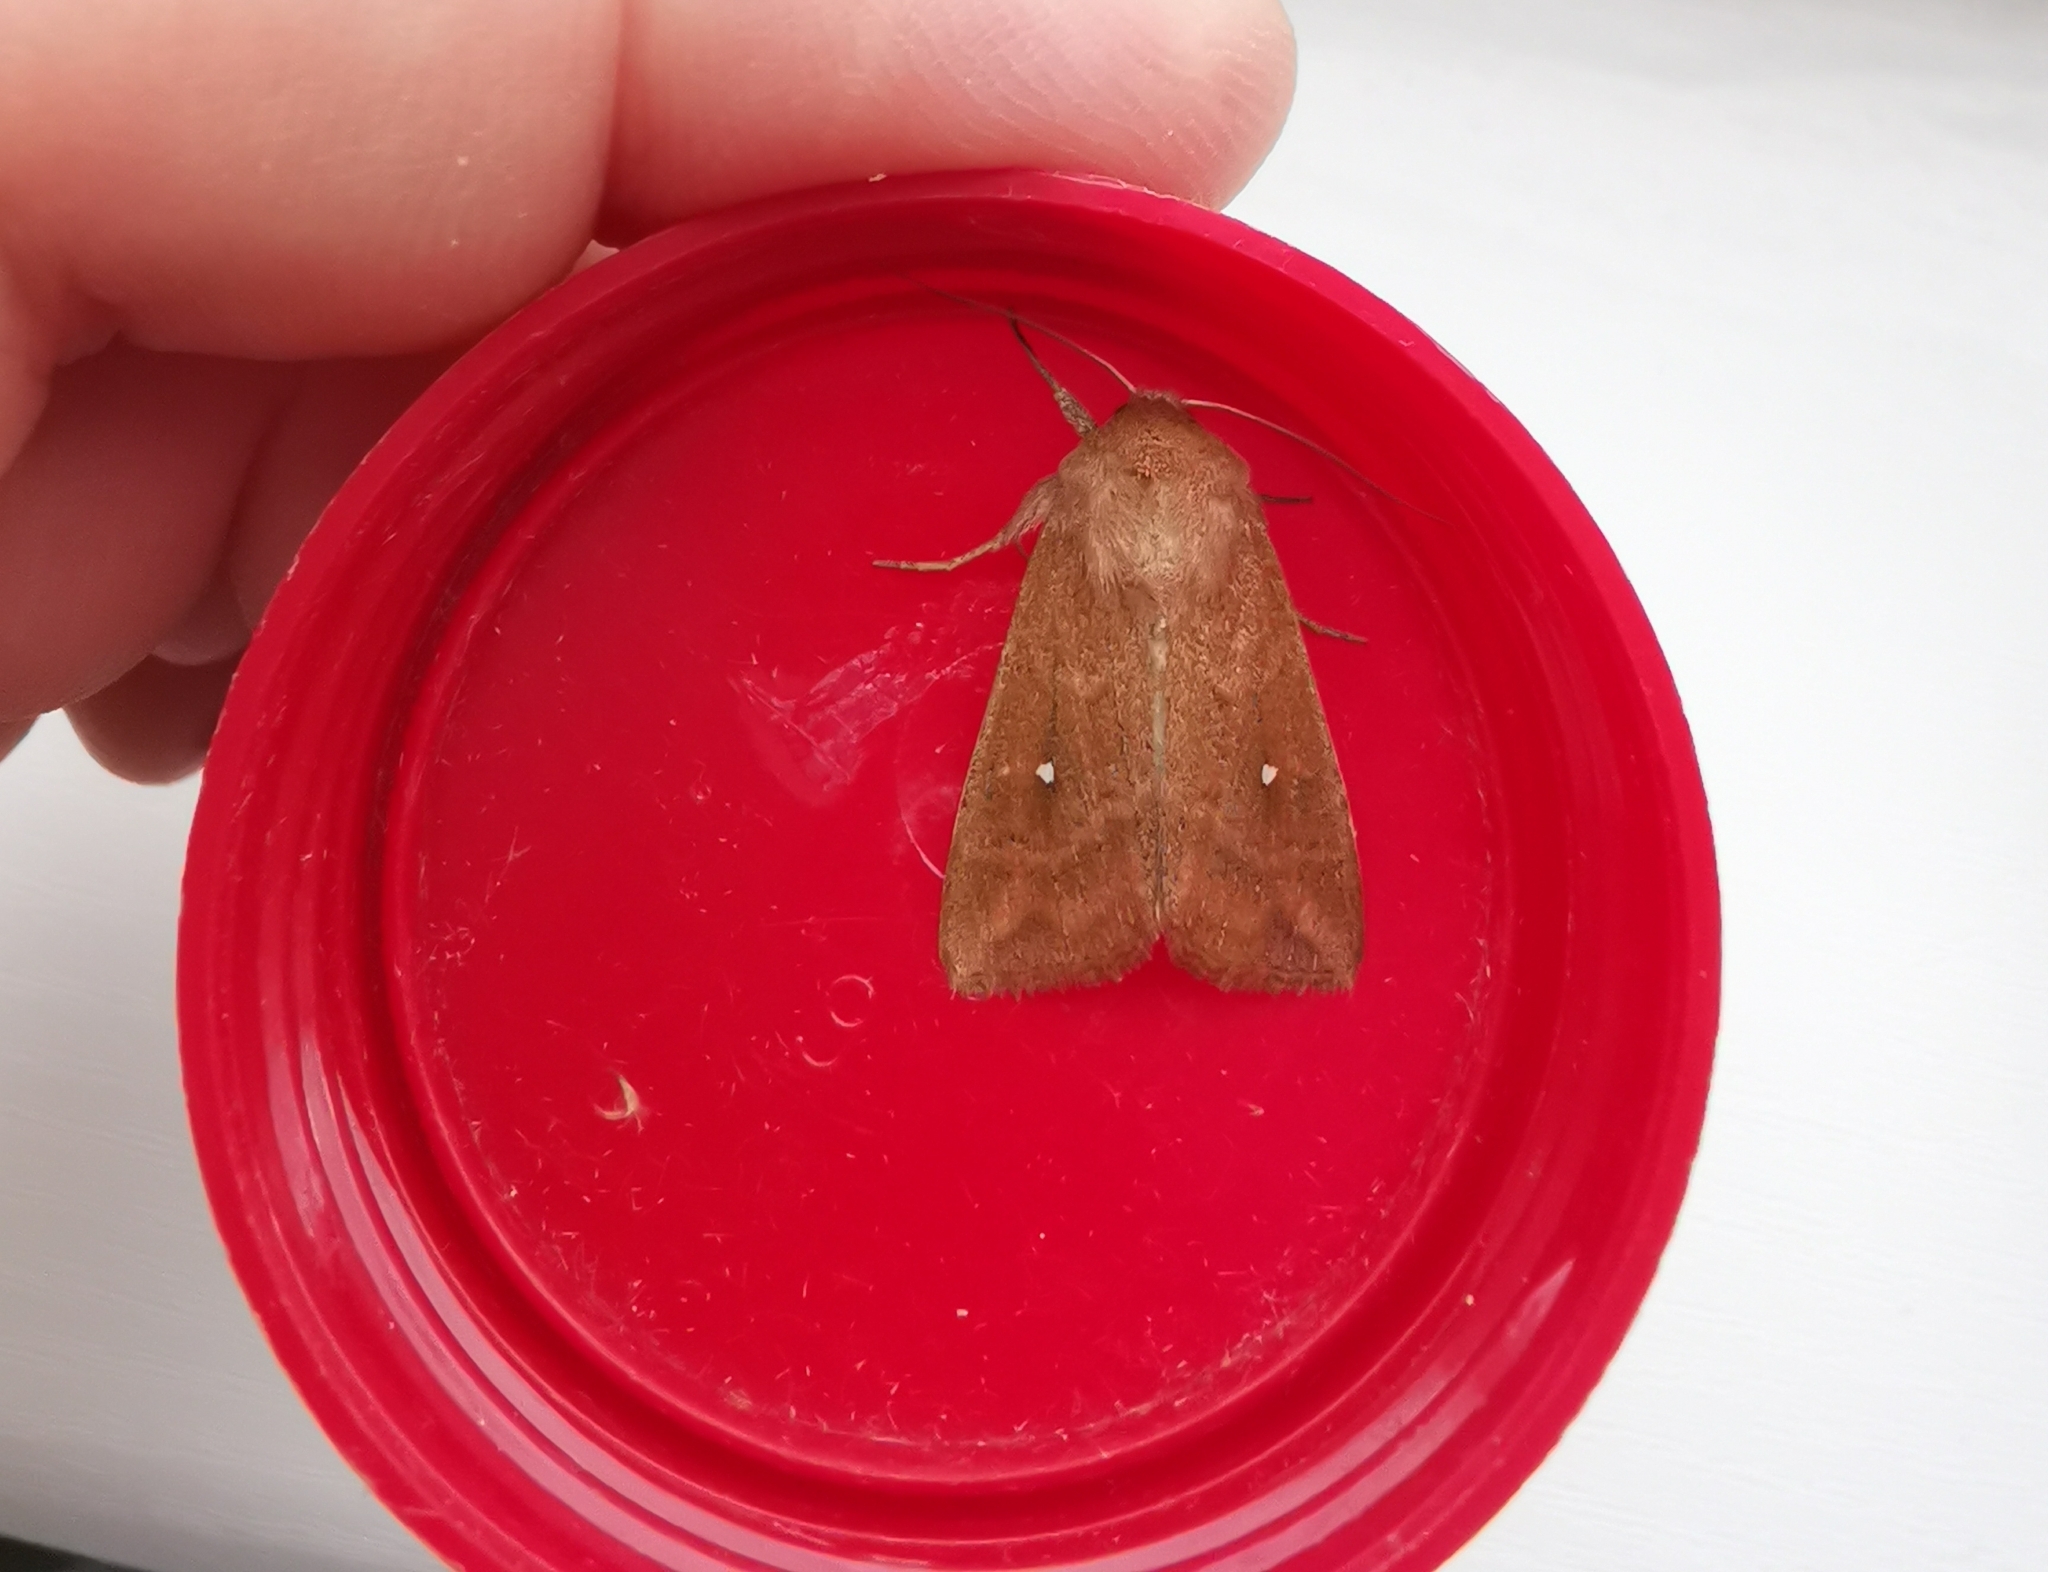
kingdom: Animalia
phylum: Arthropoda
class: Insecta
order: Lepidoptera
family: Noctuidae
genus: Mythimna
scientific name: Mythimna albipuncta
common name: White-point
